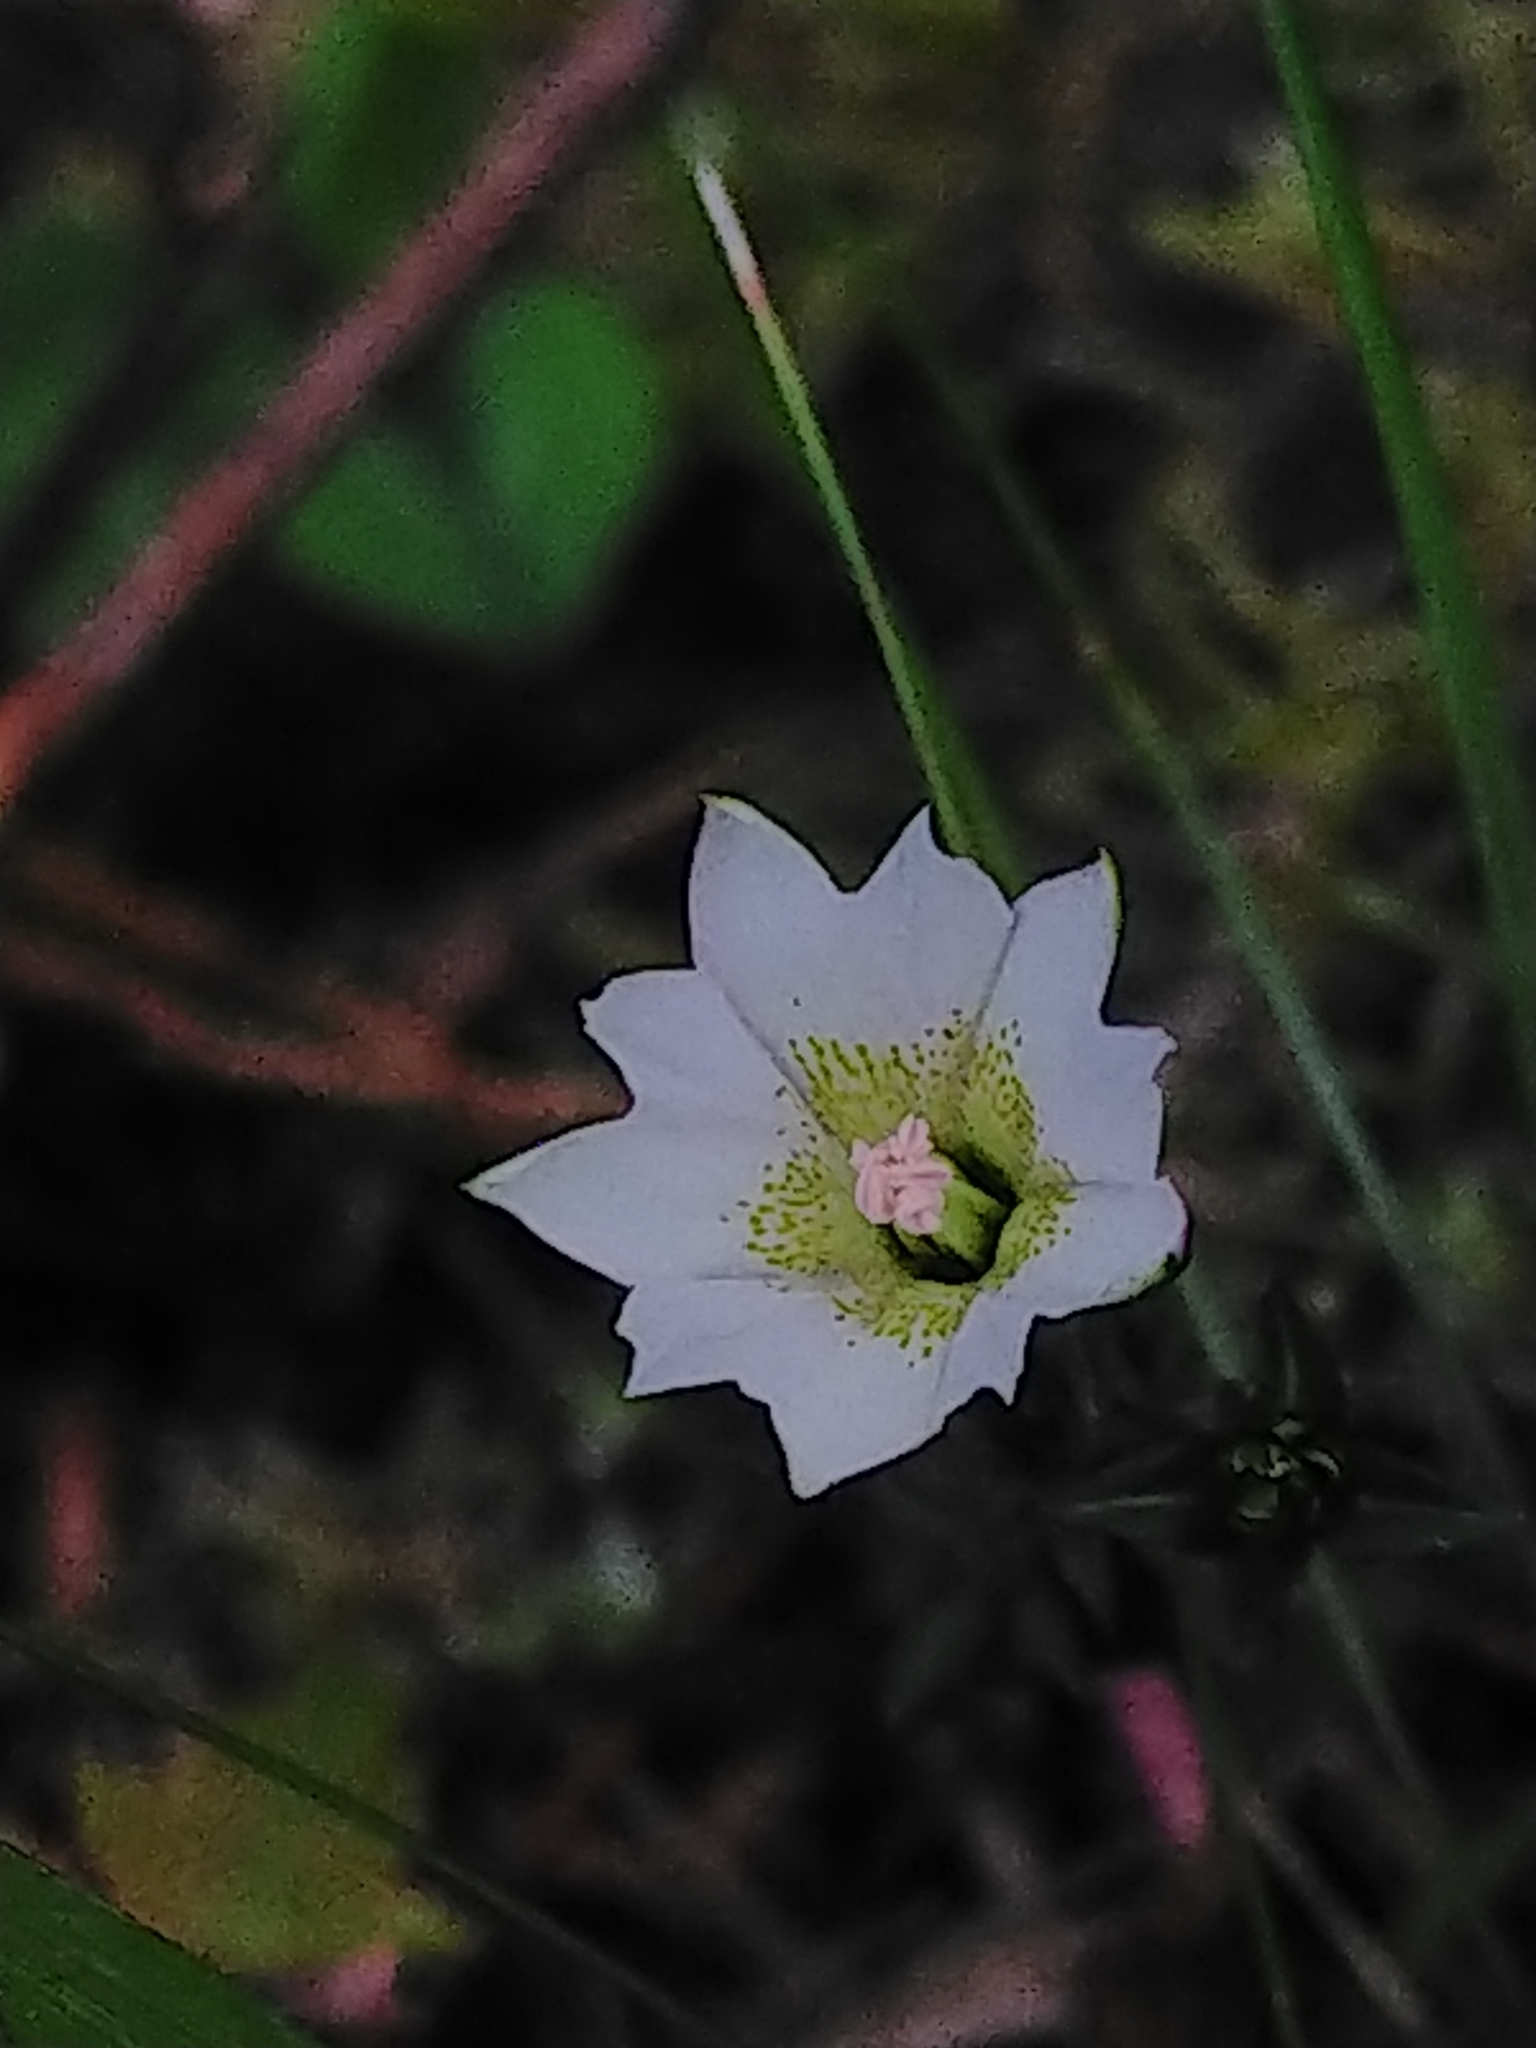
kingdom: Plantae
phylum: Tracheophyta
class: Magnoliopsida
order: Gentianales
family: Gentianaceae
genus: Gentiana
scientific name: Gentiana flavomaculata
